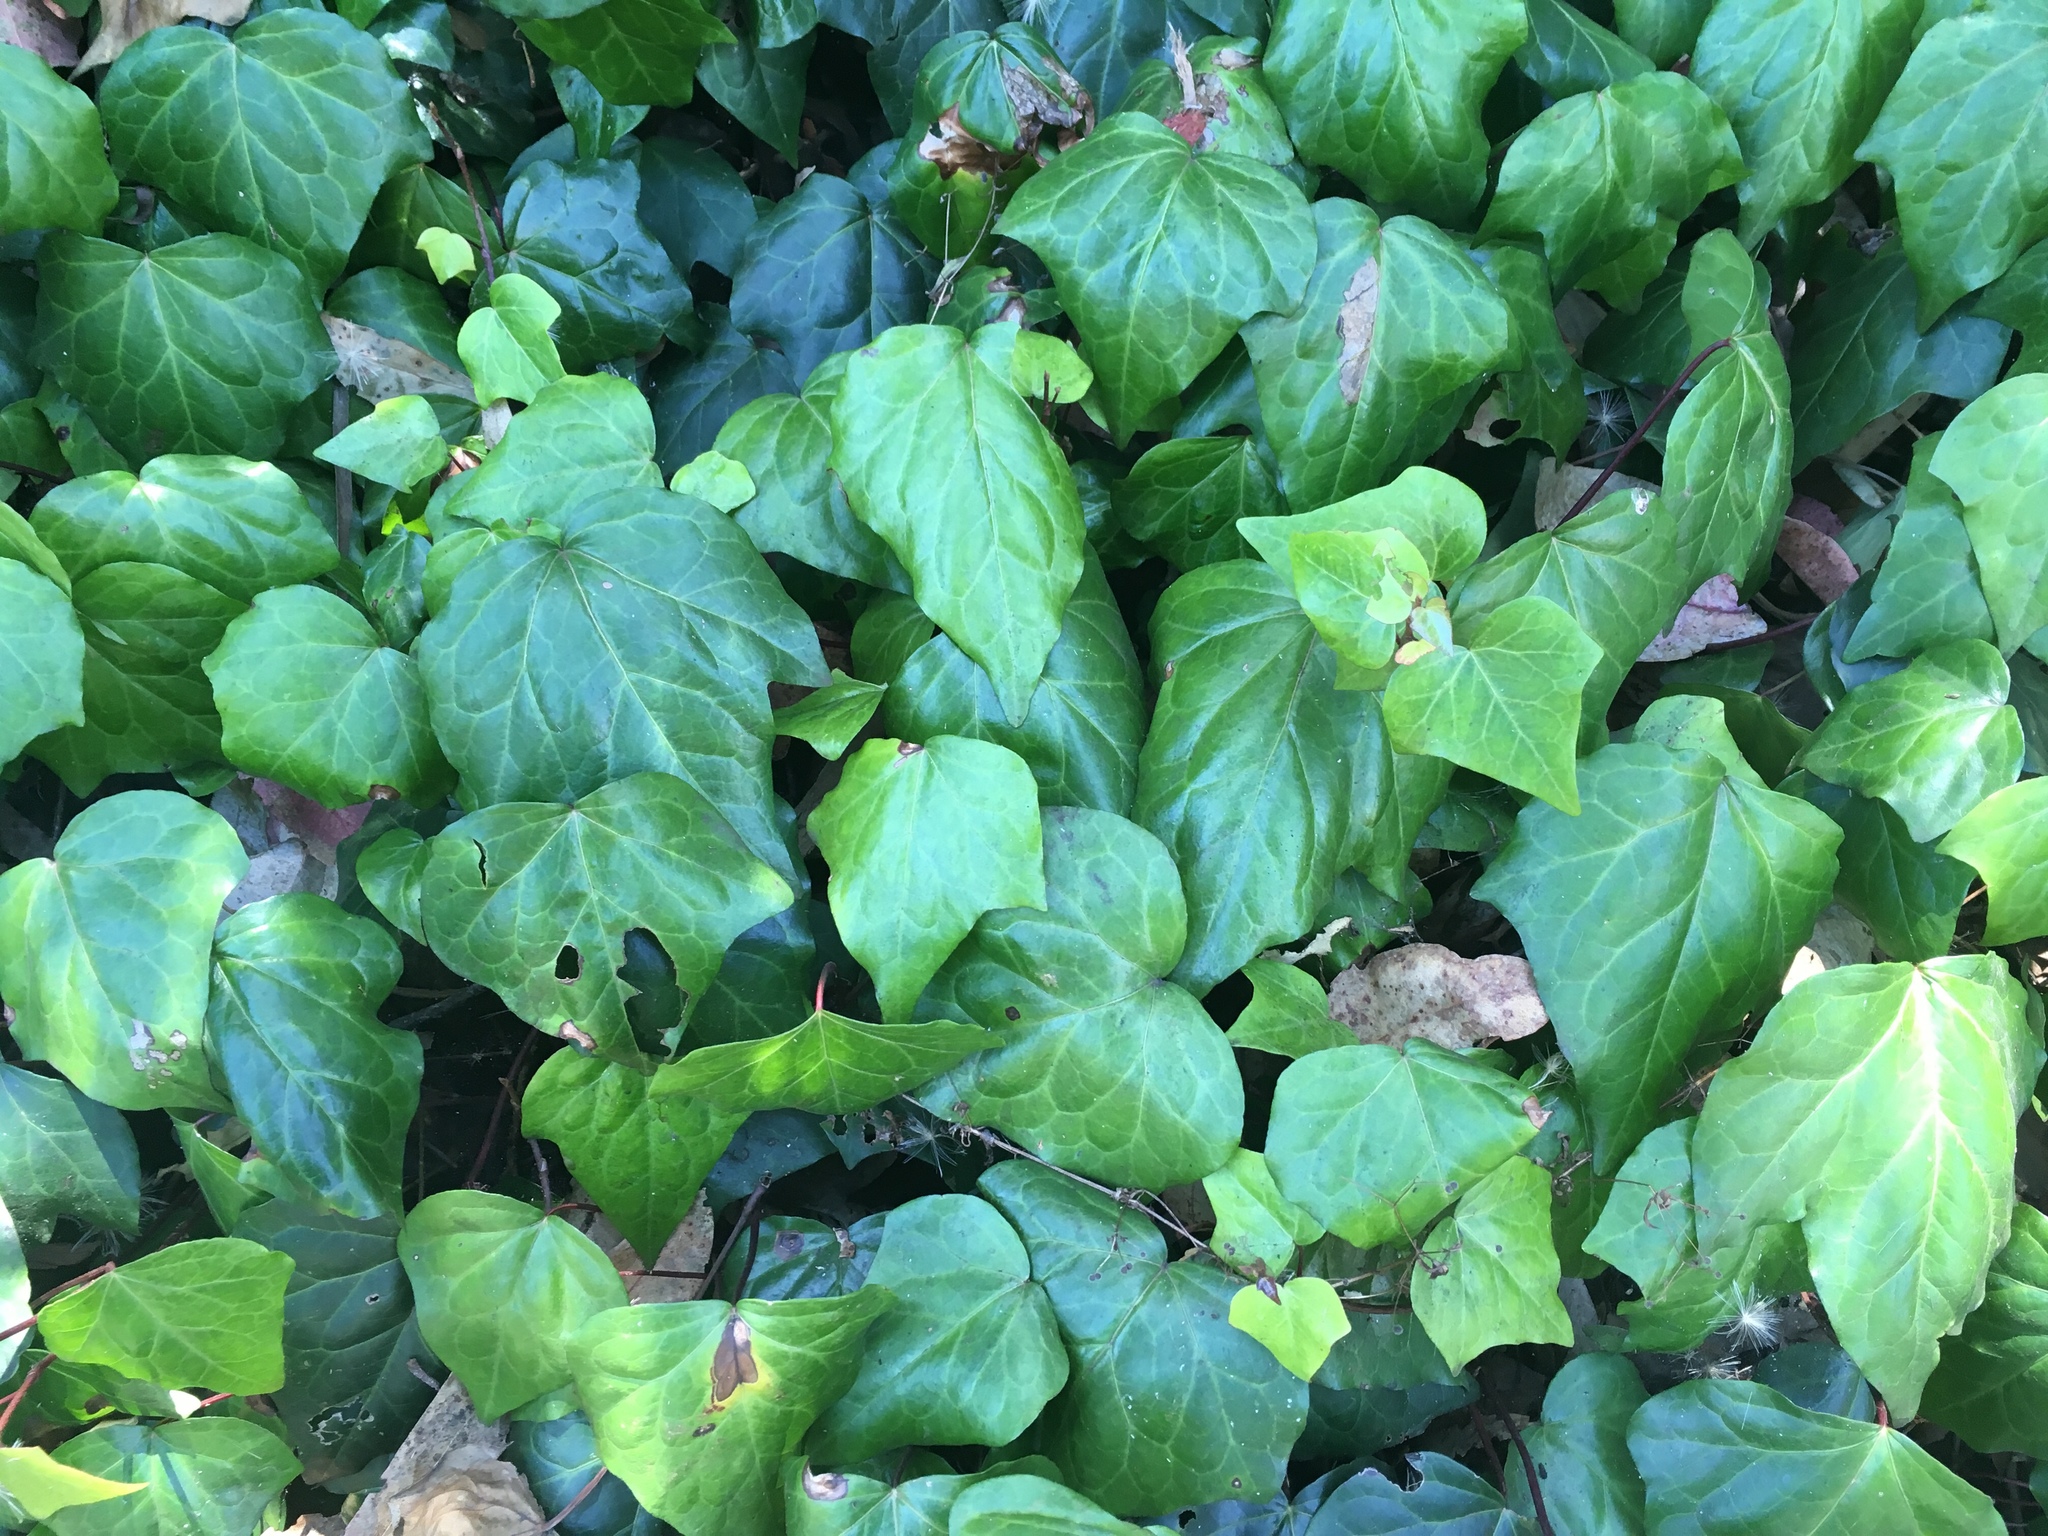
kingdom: Plantae
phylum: Tracheophyta
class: Magnoliopsida
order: Apiales
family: Araliaceae
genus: Hedera
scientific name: Hedera canariensis
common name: Madeira ivy
